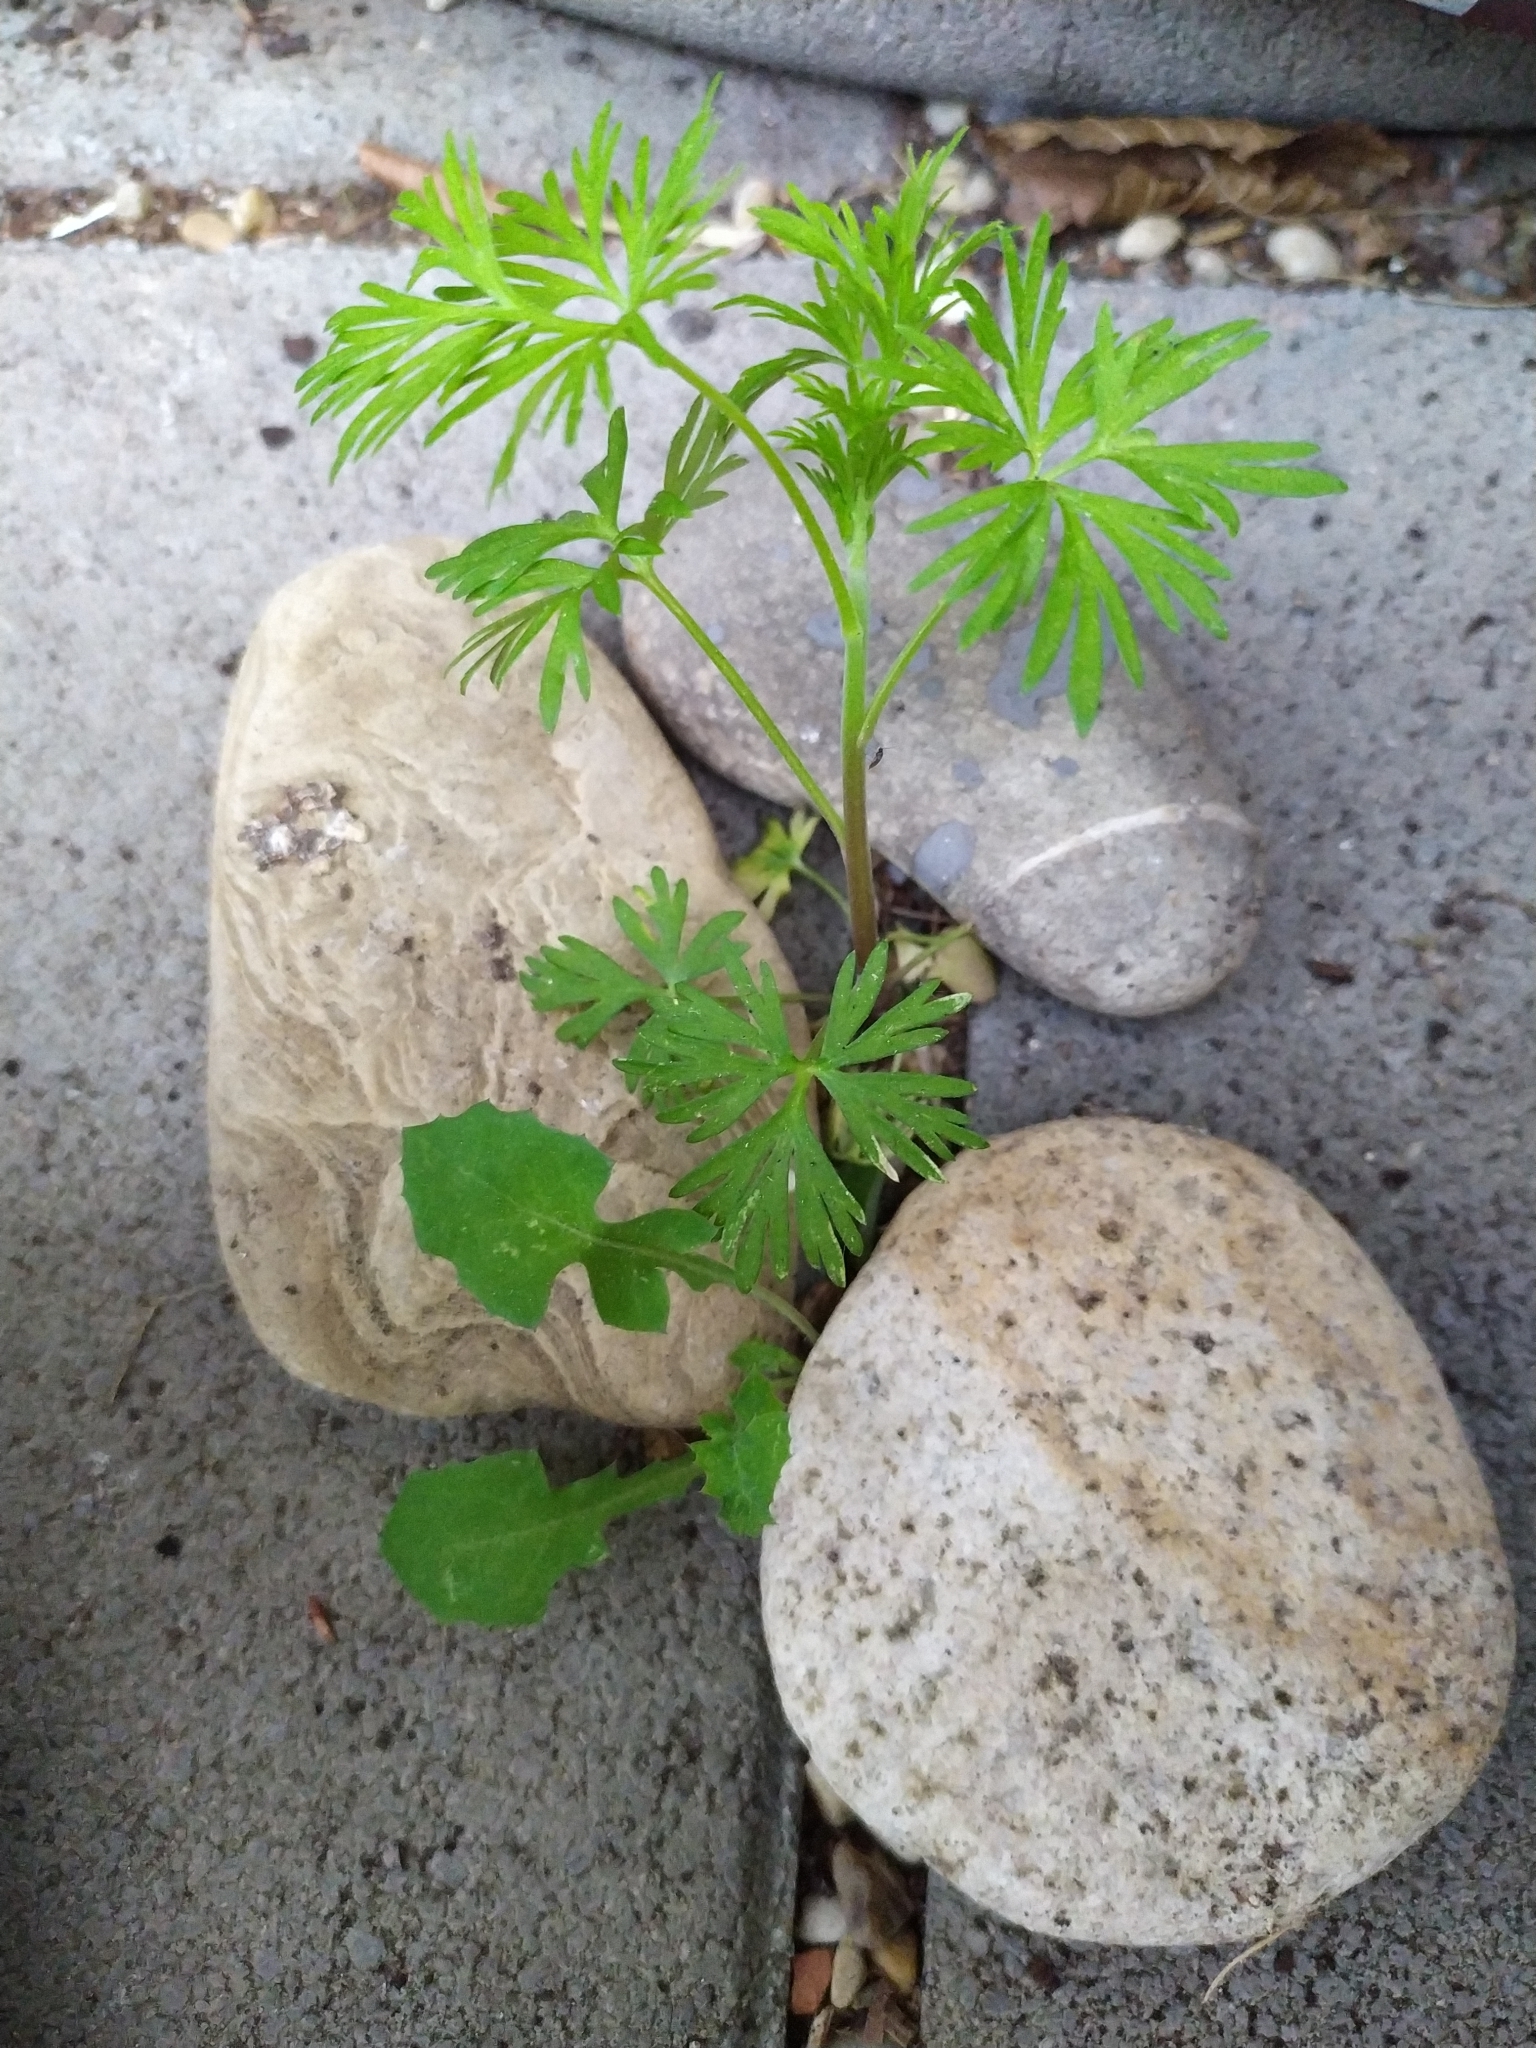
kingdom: Plantae
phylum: Tracheophyta
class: Magnoliopsida
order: Ranunculales
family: Ranunculaceae
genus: Delphinium
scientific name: Delphinium ajacis
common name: Doubtful knight's-spur
